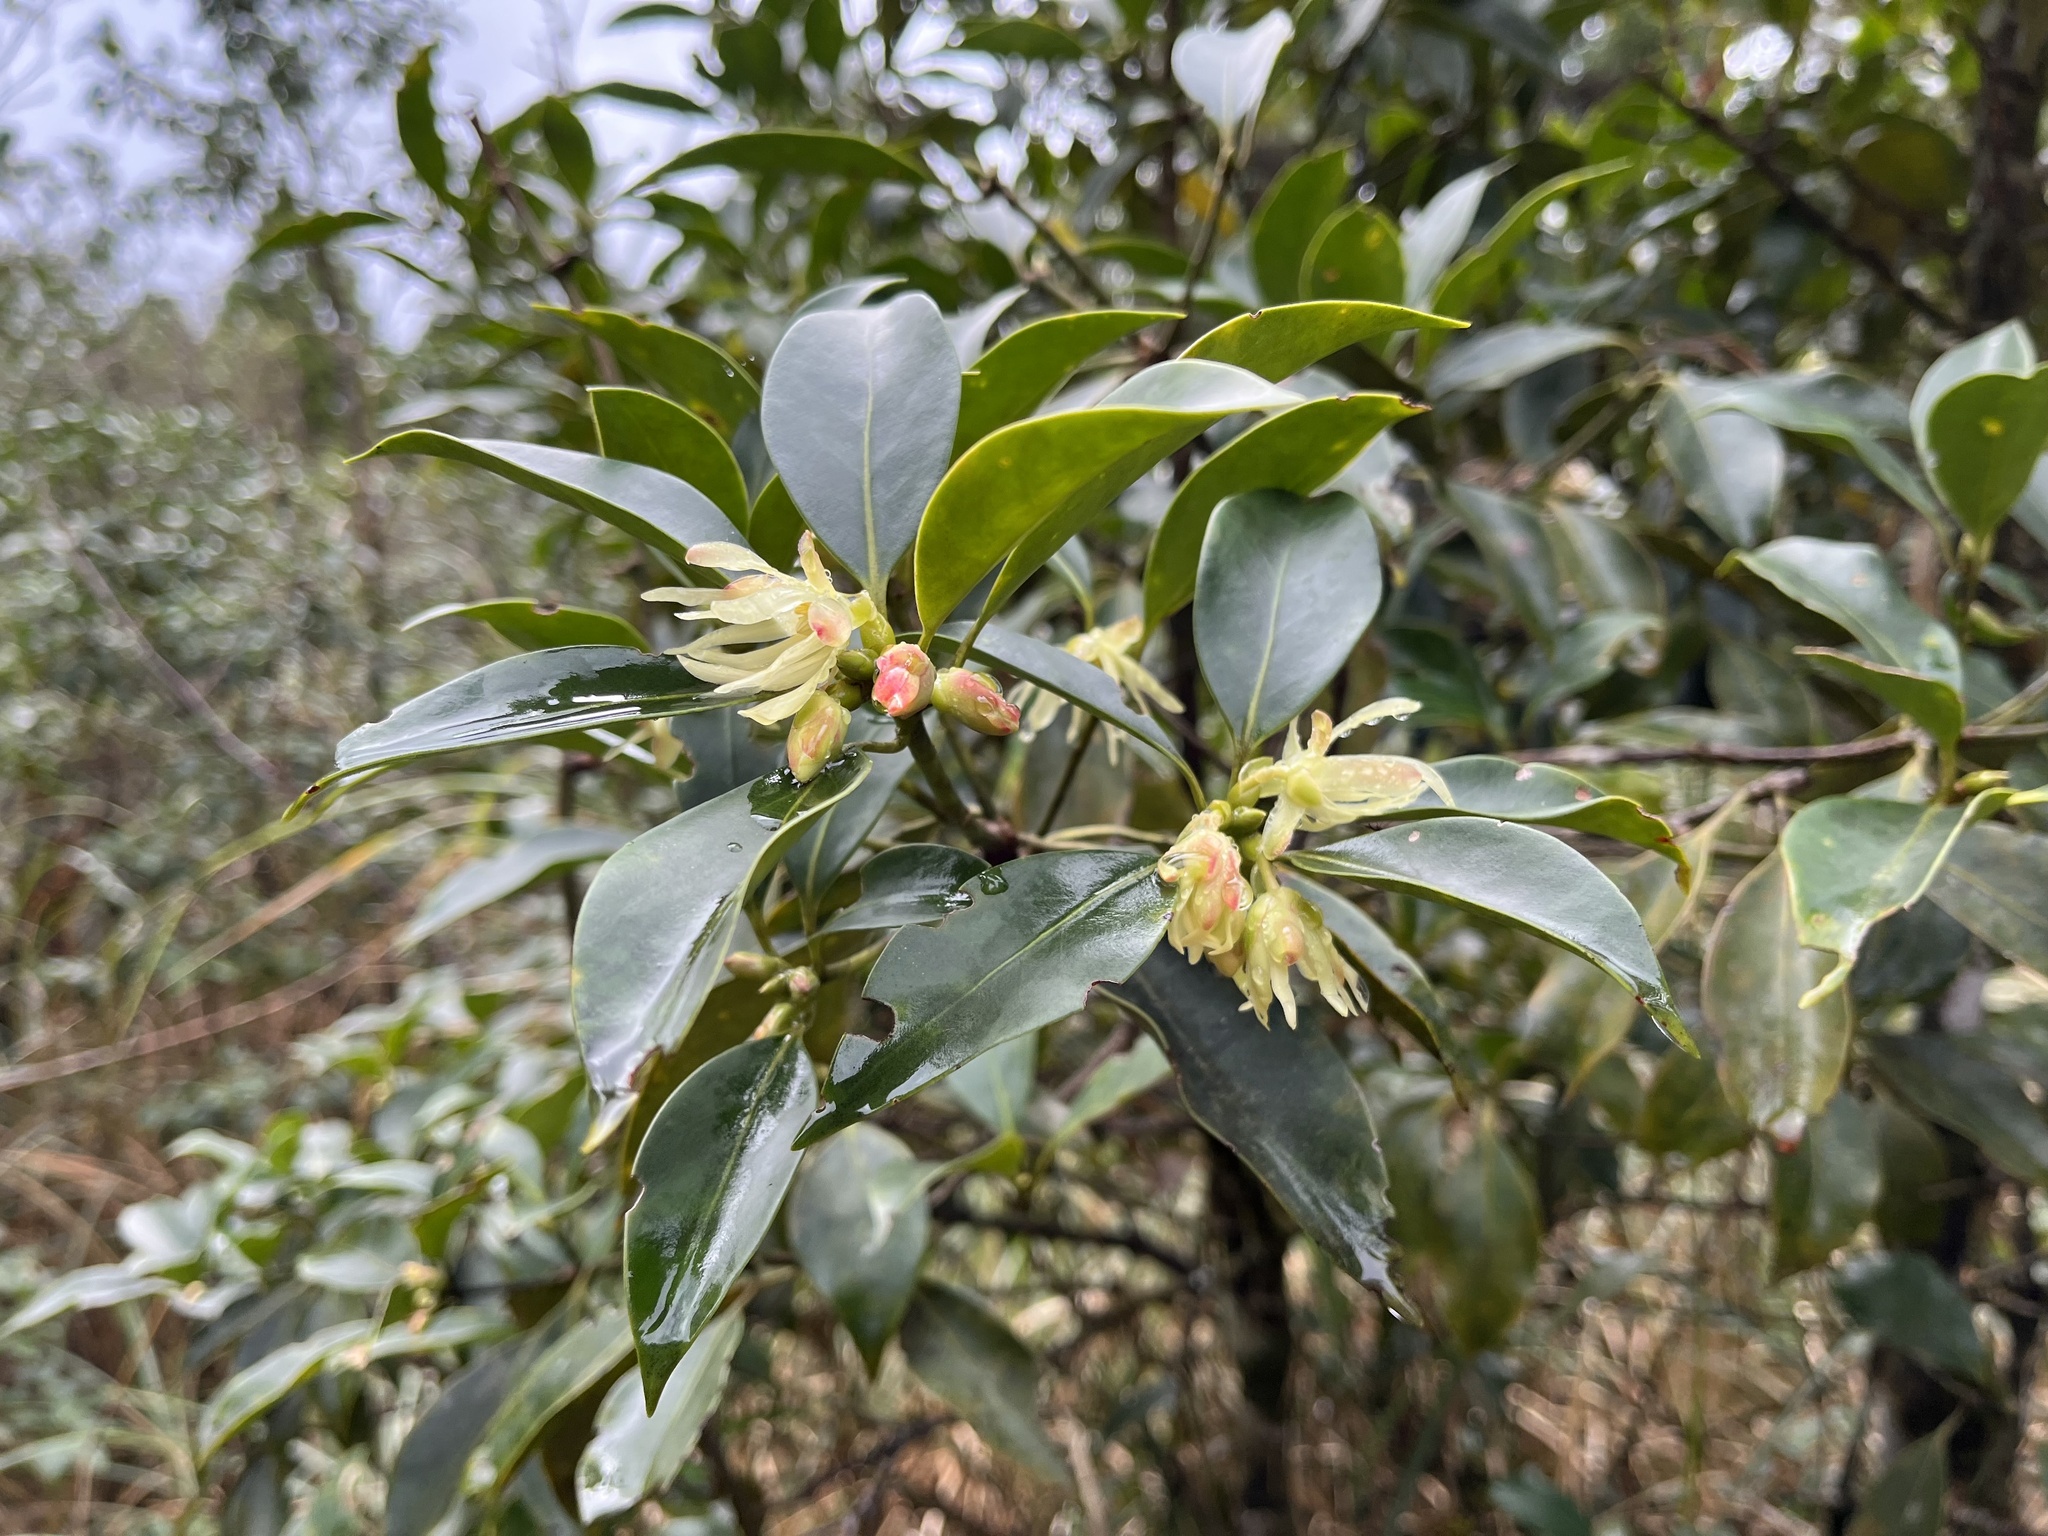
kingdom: Plantae
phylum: Tracheophyta
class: Magnoliopsida
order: Austrobaileyales
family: Schisandraceae
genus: Illicium
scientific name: Illicium anisatum
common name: Sacred anisetree
